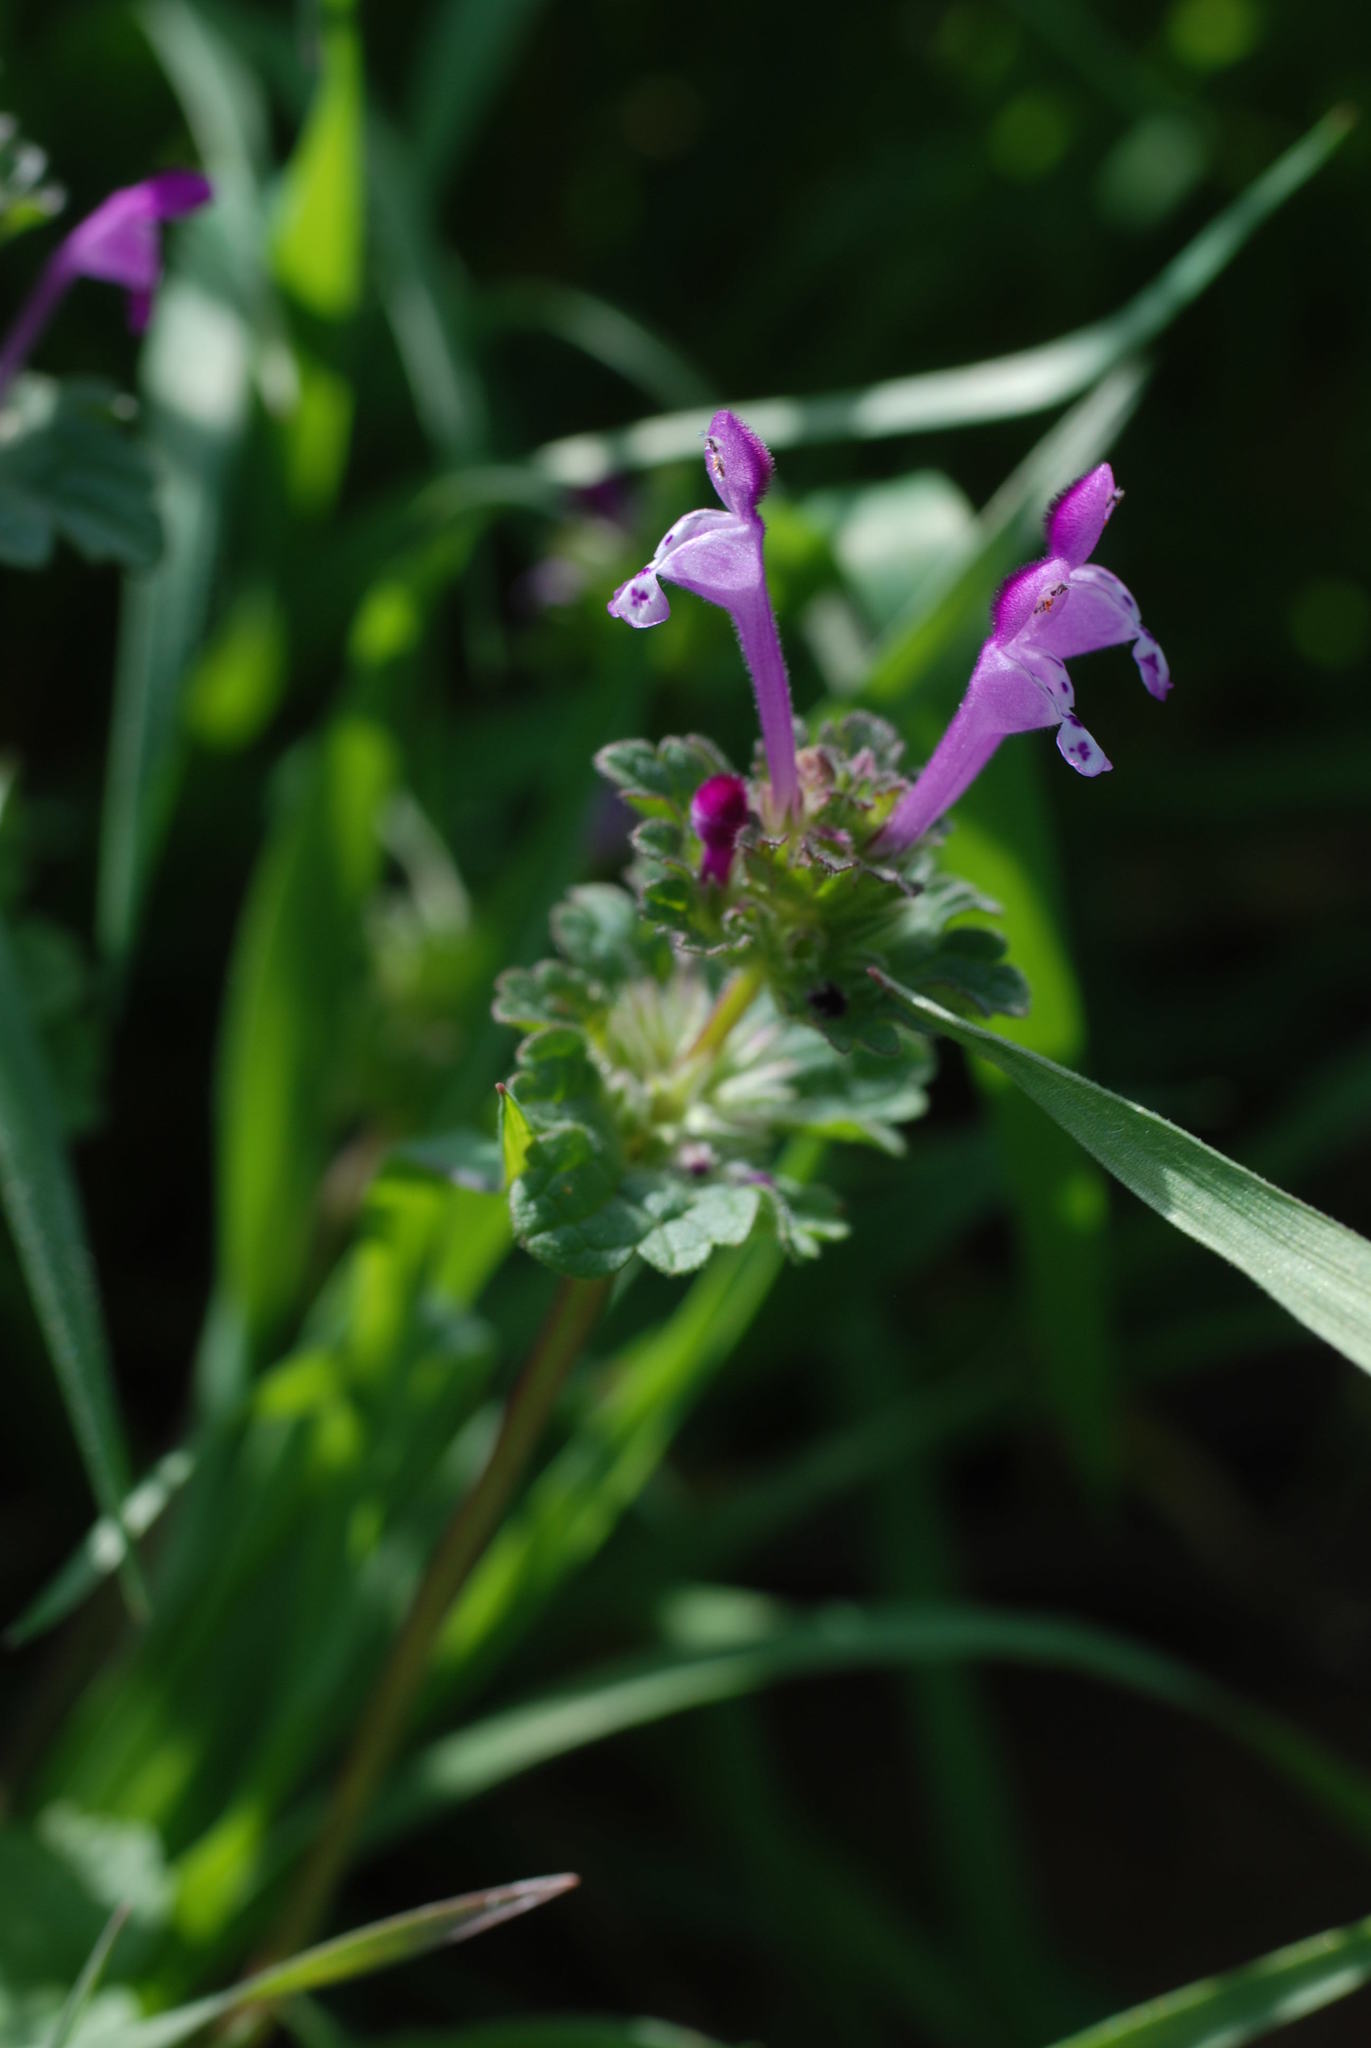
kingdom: Plantae
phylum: Tracheophyta
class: Magnoliopsida
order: Lamiales
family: Lamiaceae
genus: Lamium
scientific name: Lamium amplexicaule
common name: Henbit dead-nettle
